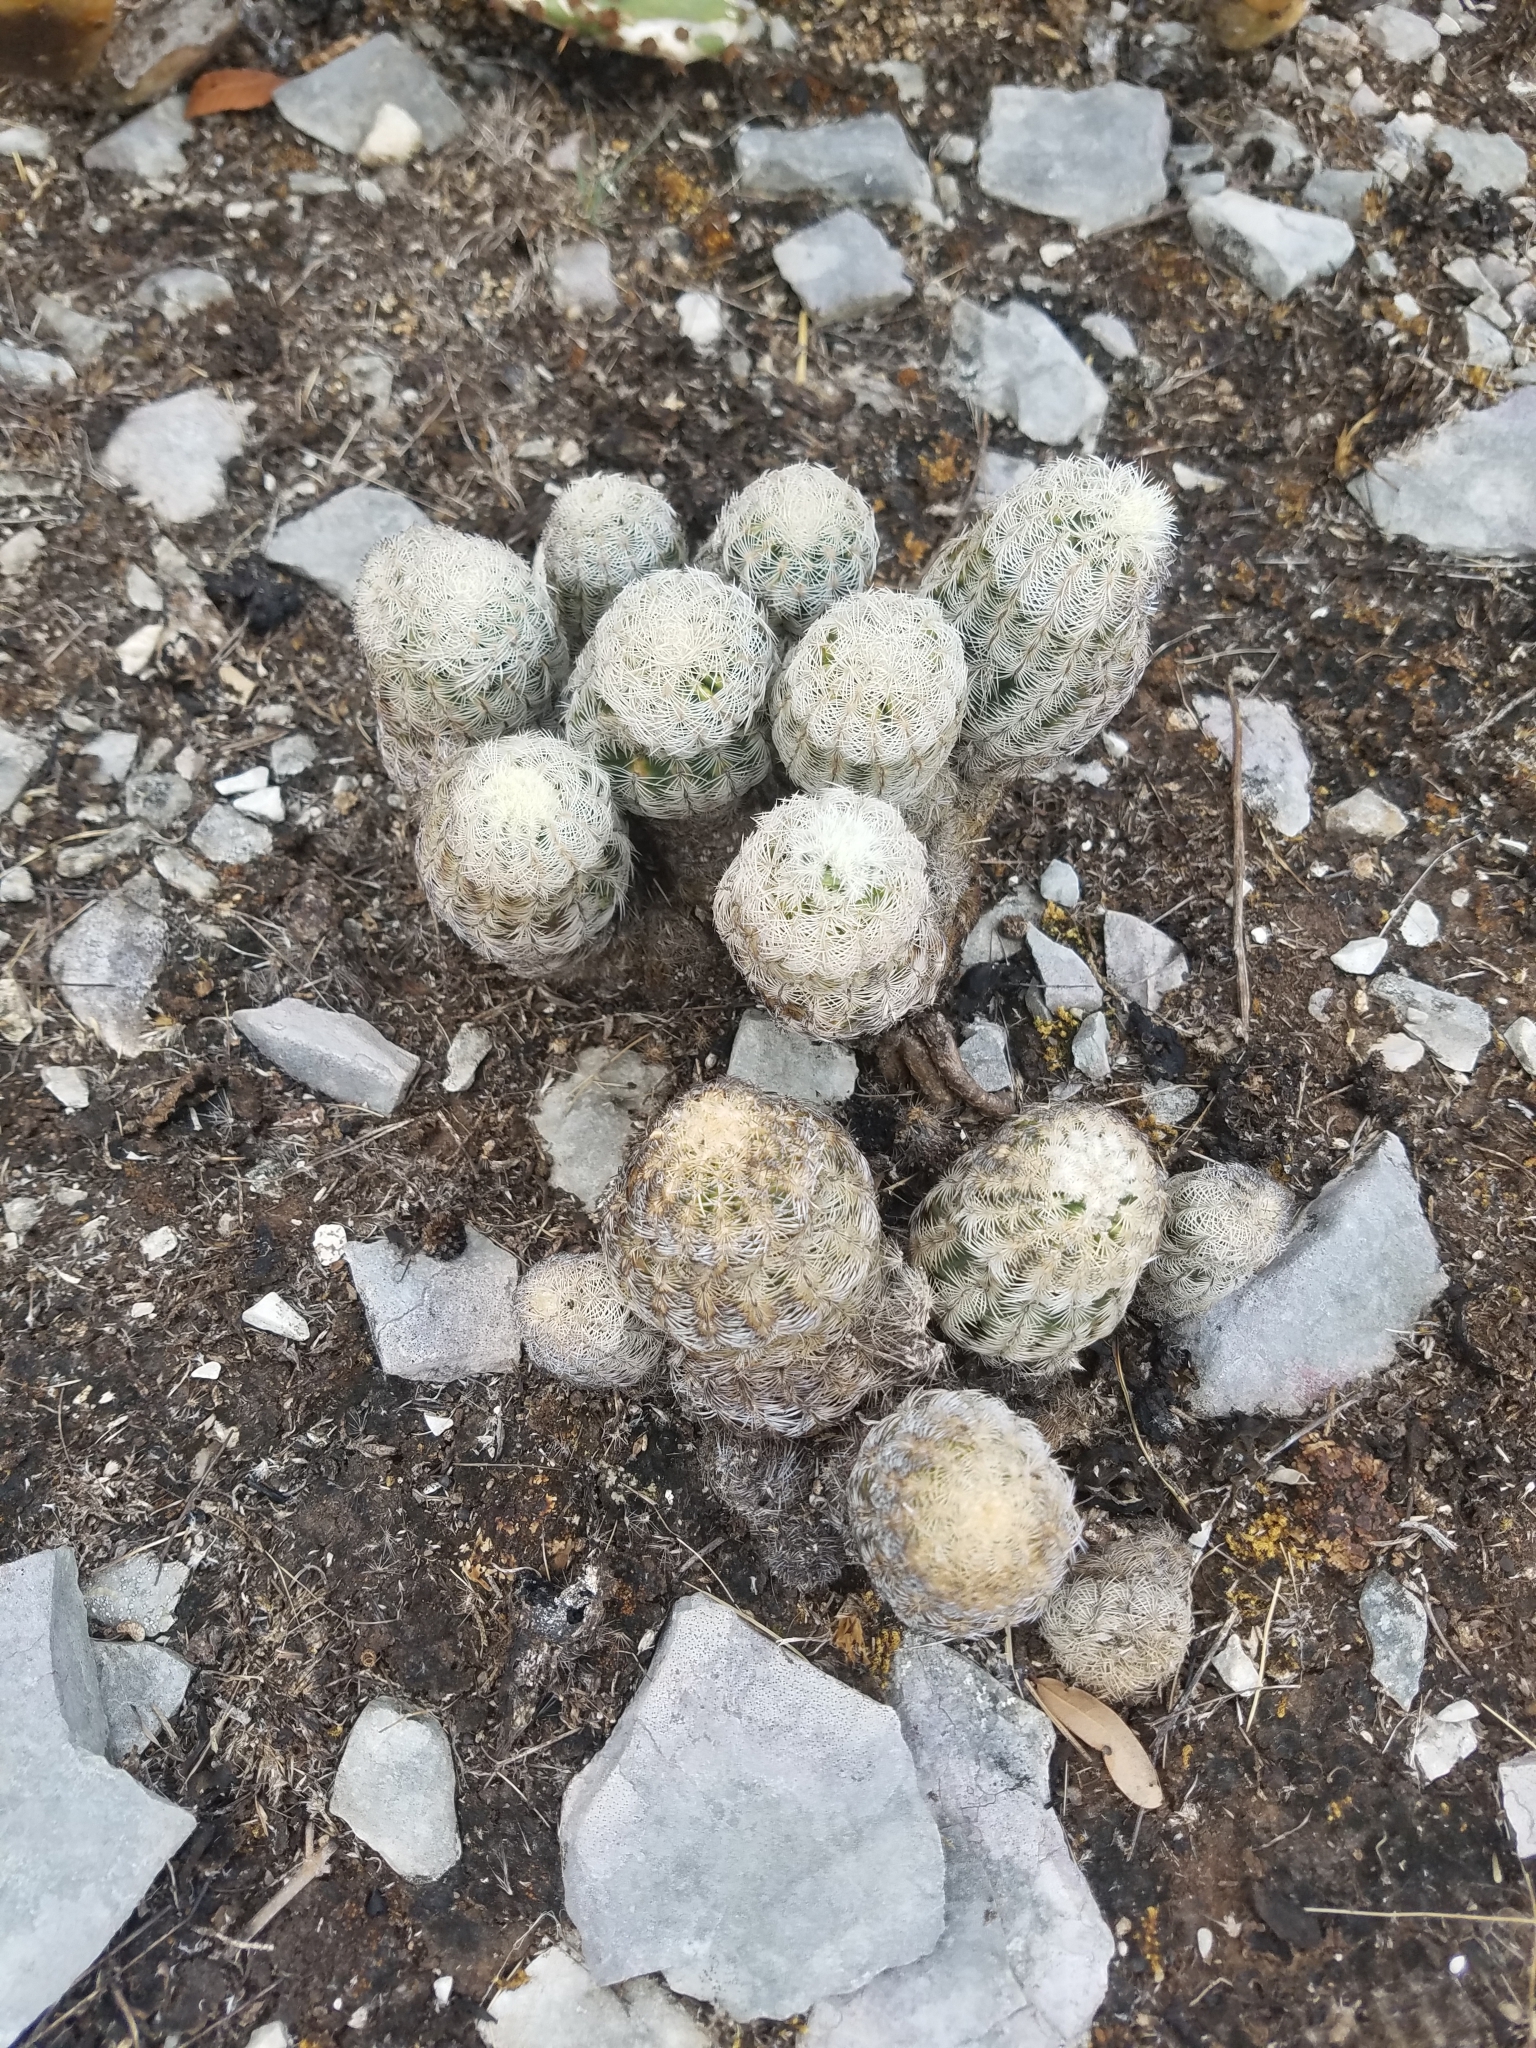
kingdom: Plantae
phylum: Tracheophyta
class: Magnoliopsida
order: Caryophyllales
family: Cactaceae
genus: Echinocereus
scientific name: Echinocereus reichenbachii
